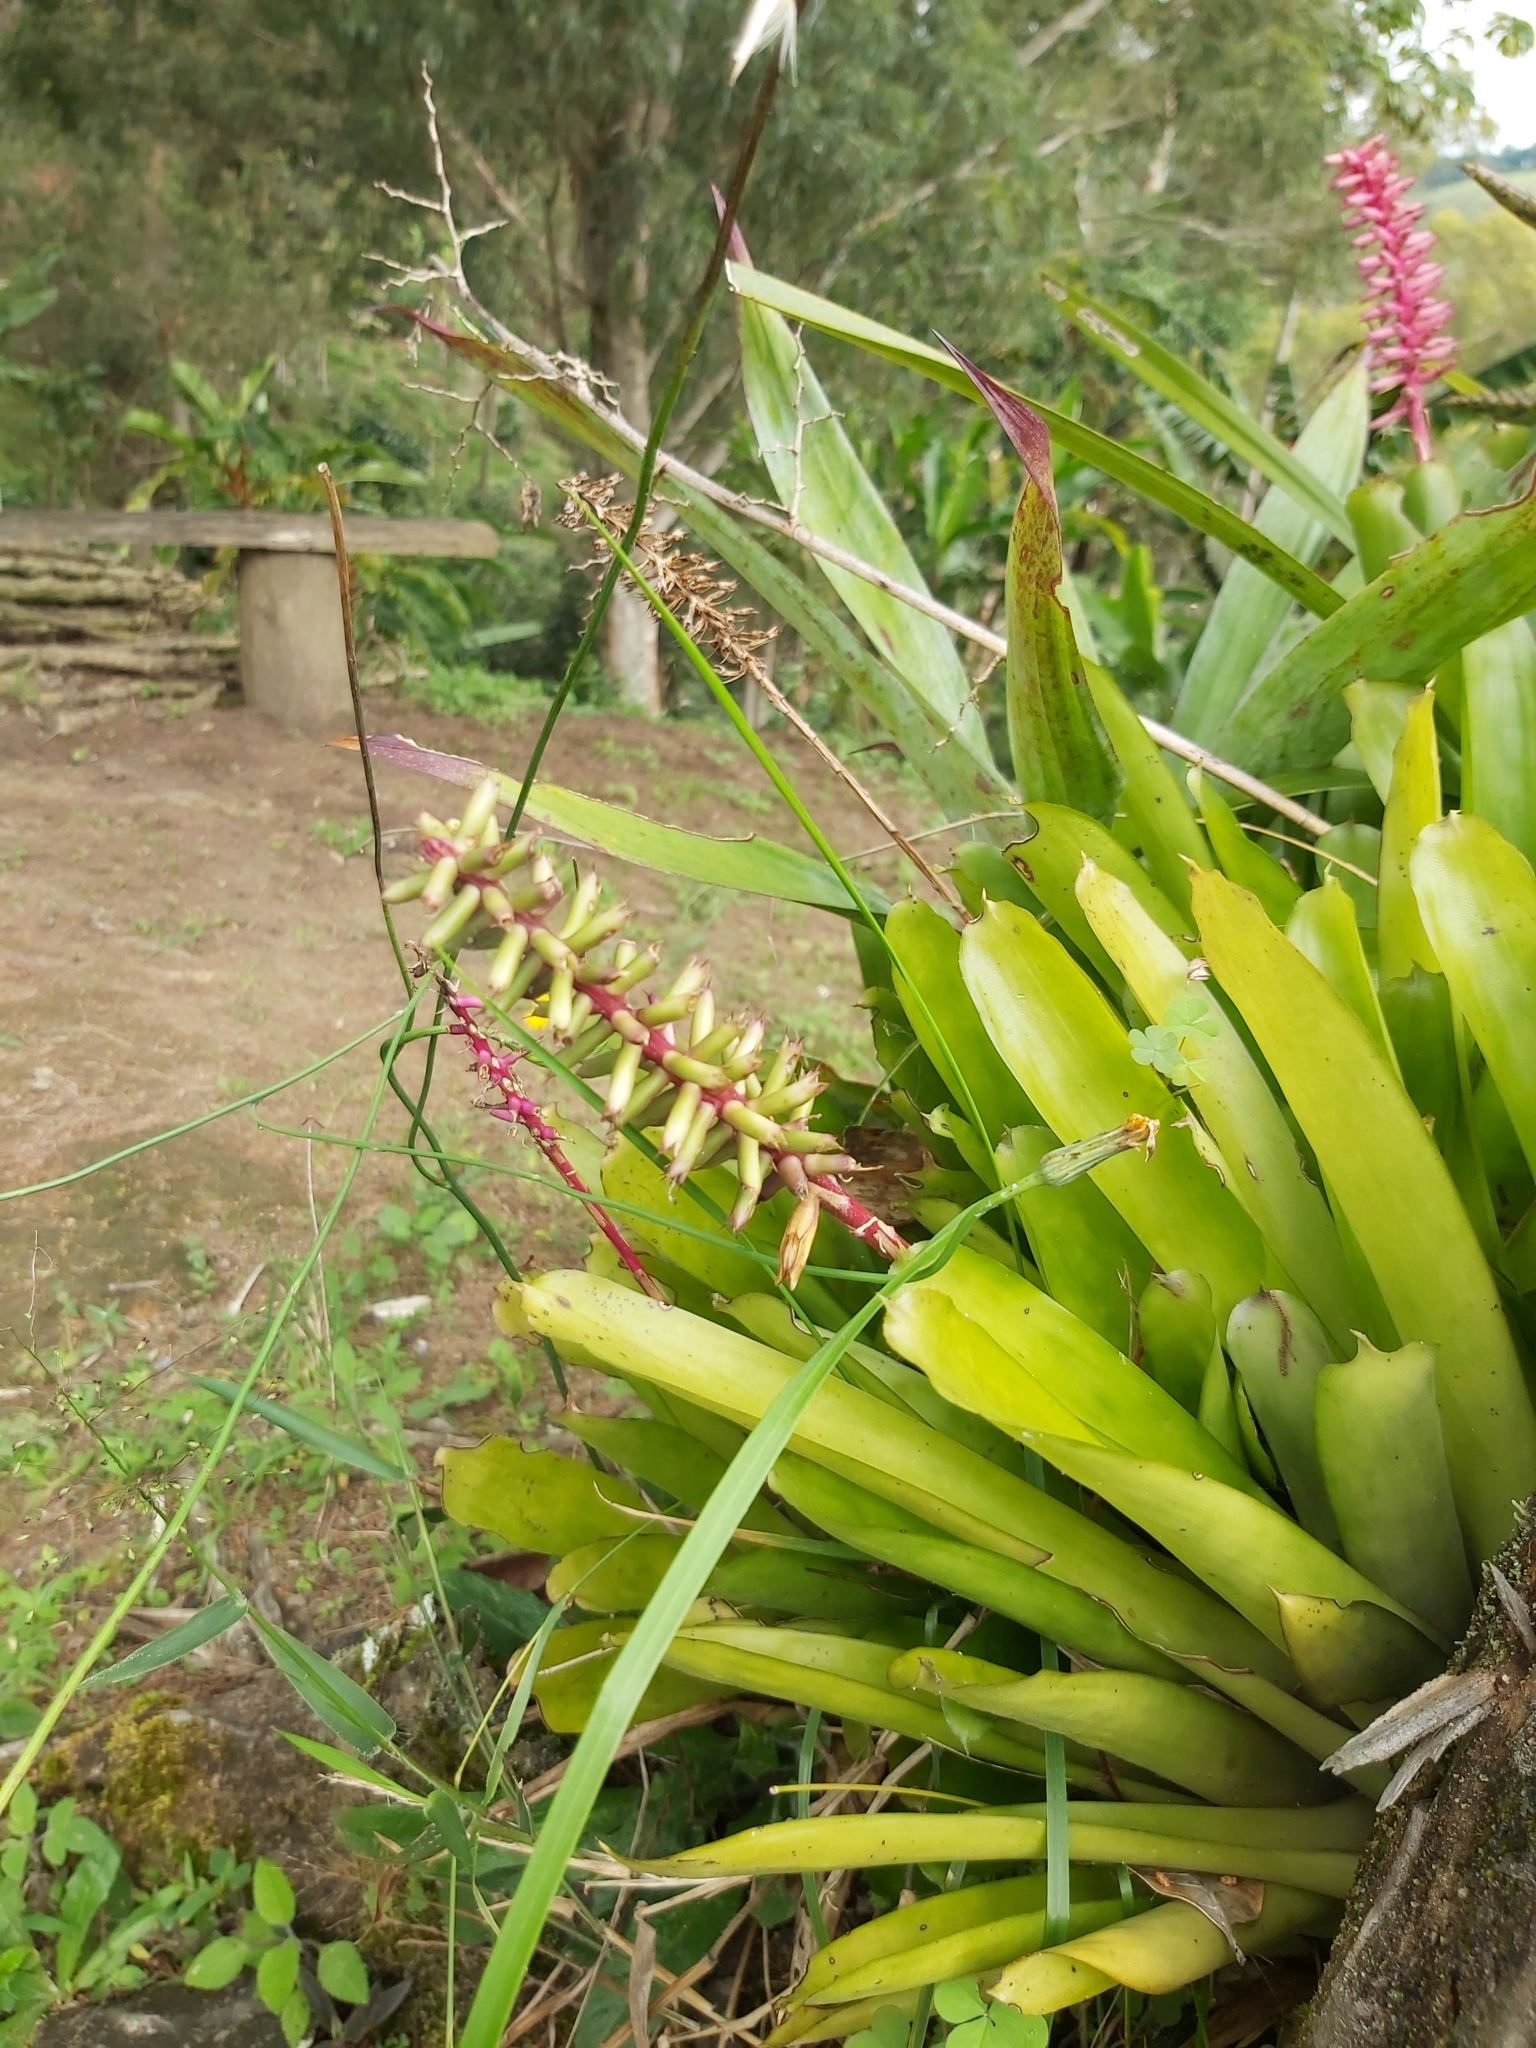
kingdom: Plantae
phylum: Tracheophyta
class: Liliopsida
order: Poales
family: Bromeliaceae
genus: Aechmea
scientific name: Aechmea gamosepala
